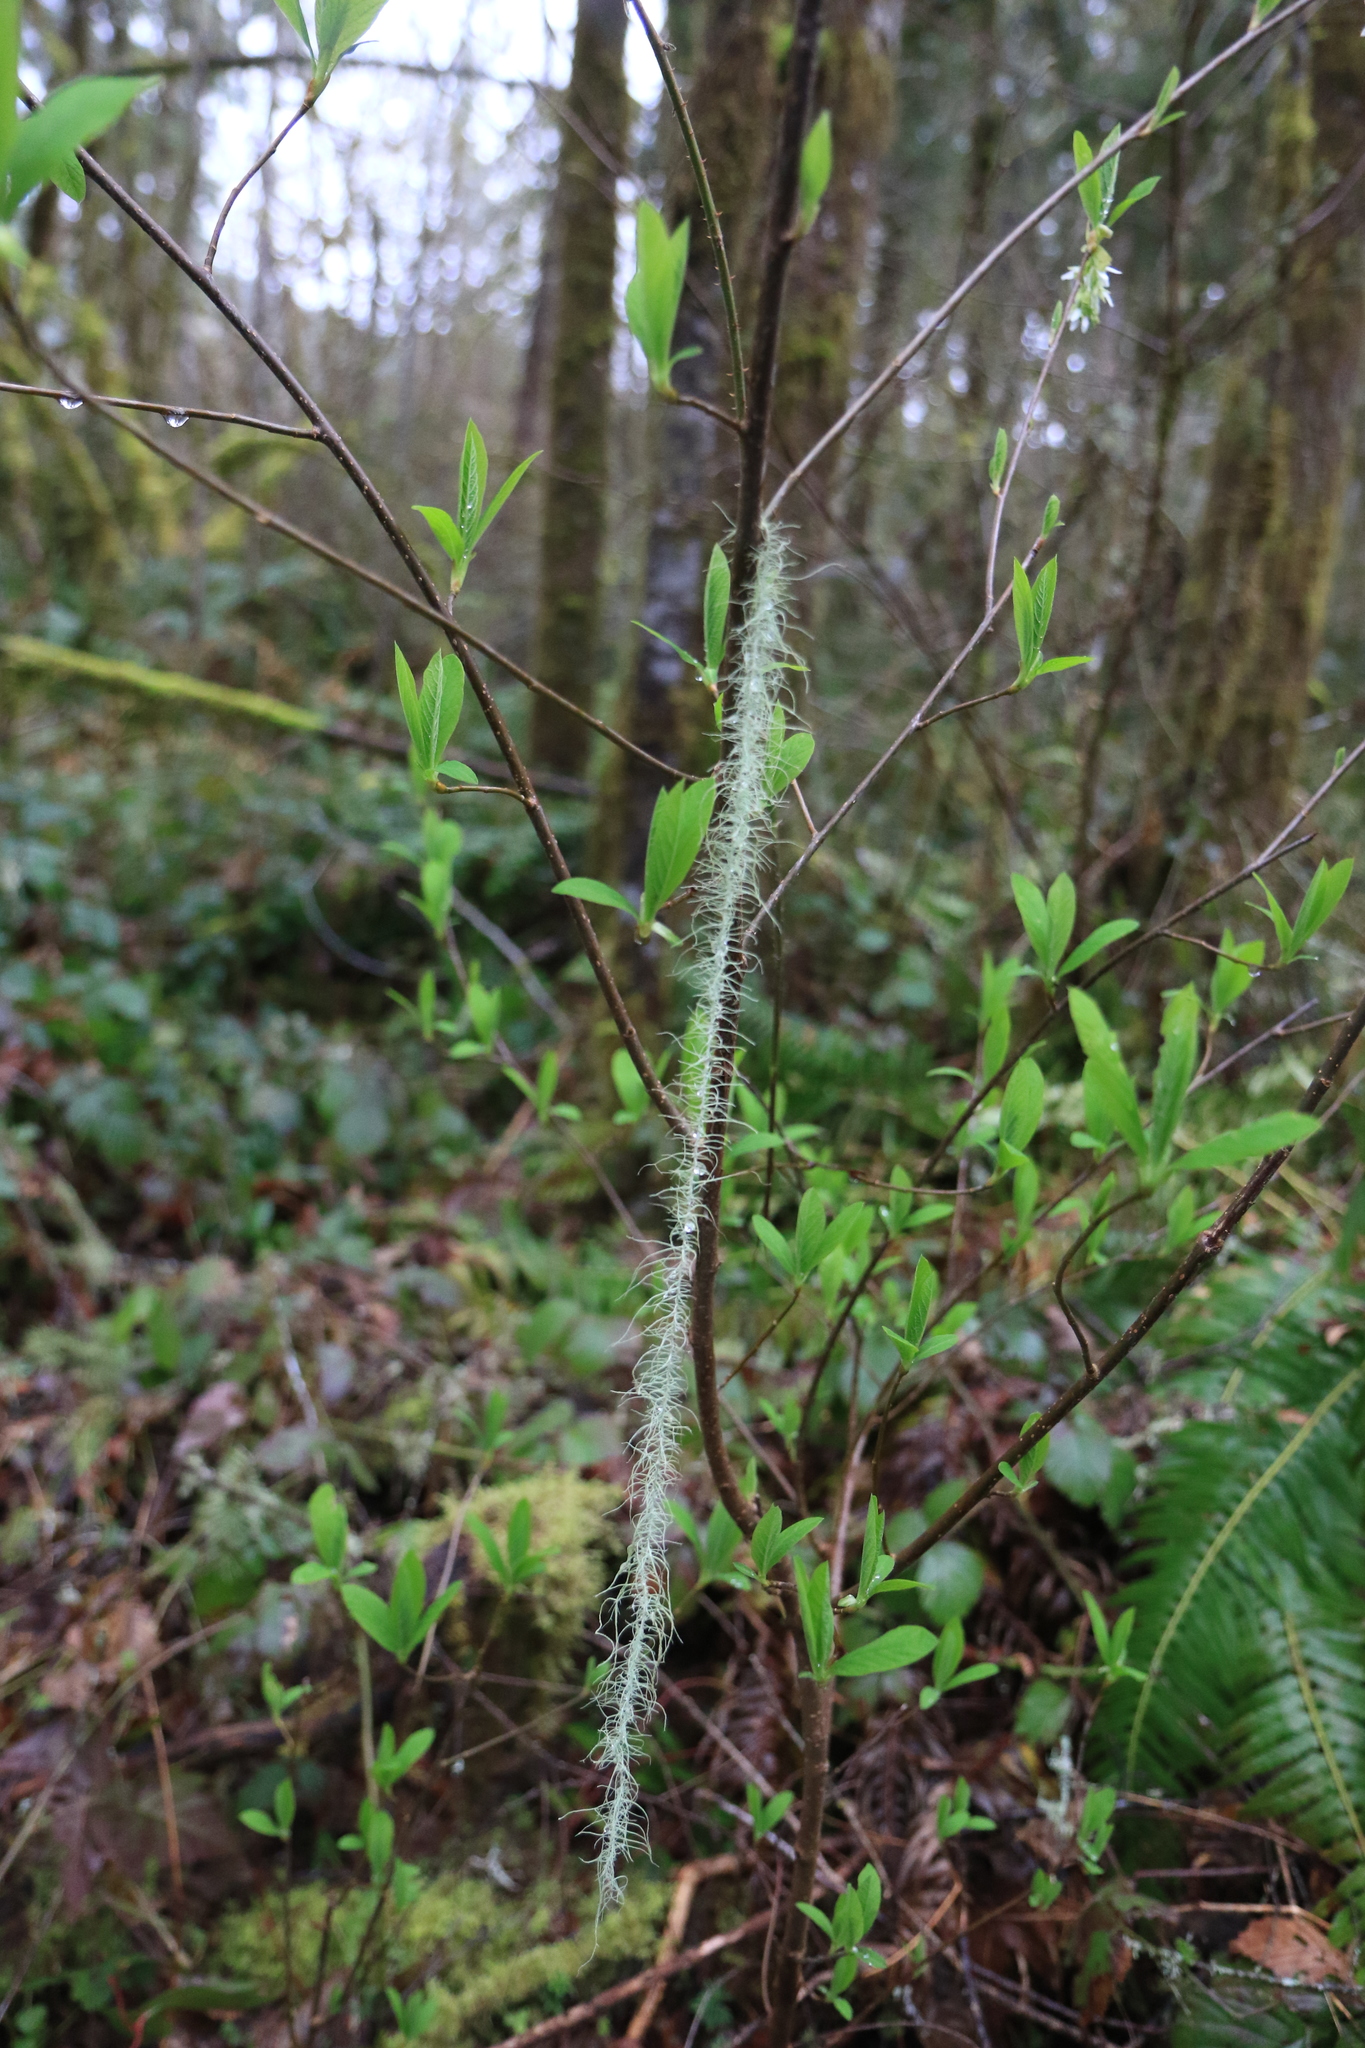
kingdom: Fungi
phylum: Ascomycota
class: Lecanoromycetes
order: Lecanorales
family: Parmeliaceae
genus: Dolichousnea
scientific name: Dolichousnea longissima
